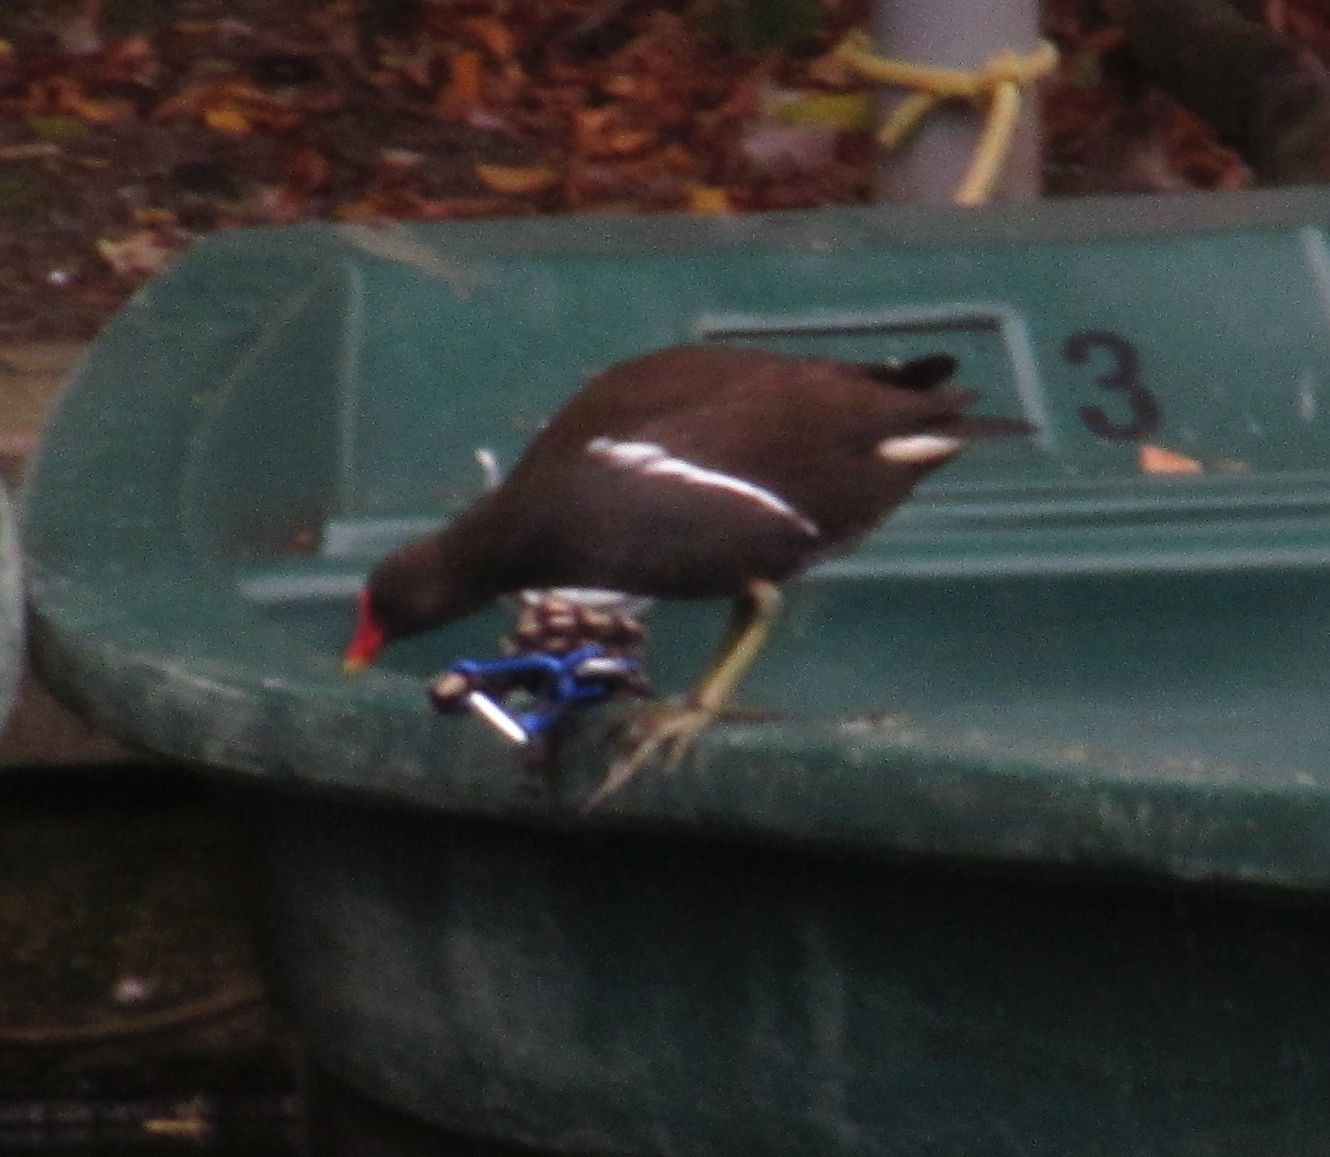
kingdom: Animalia
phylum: Chordata
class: Aves
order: Gruiformes
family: Rallidae
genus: Gallinula
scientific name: Gallinula chloropus
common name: Common moorhen
